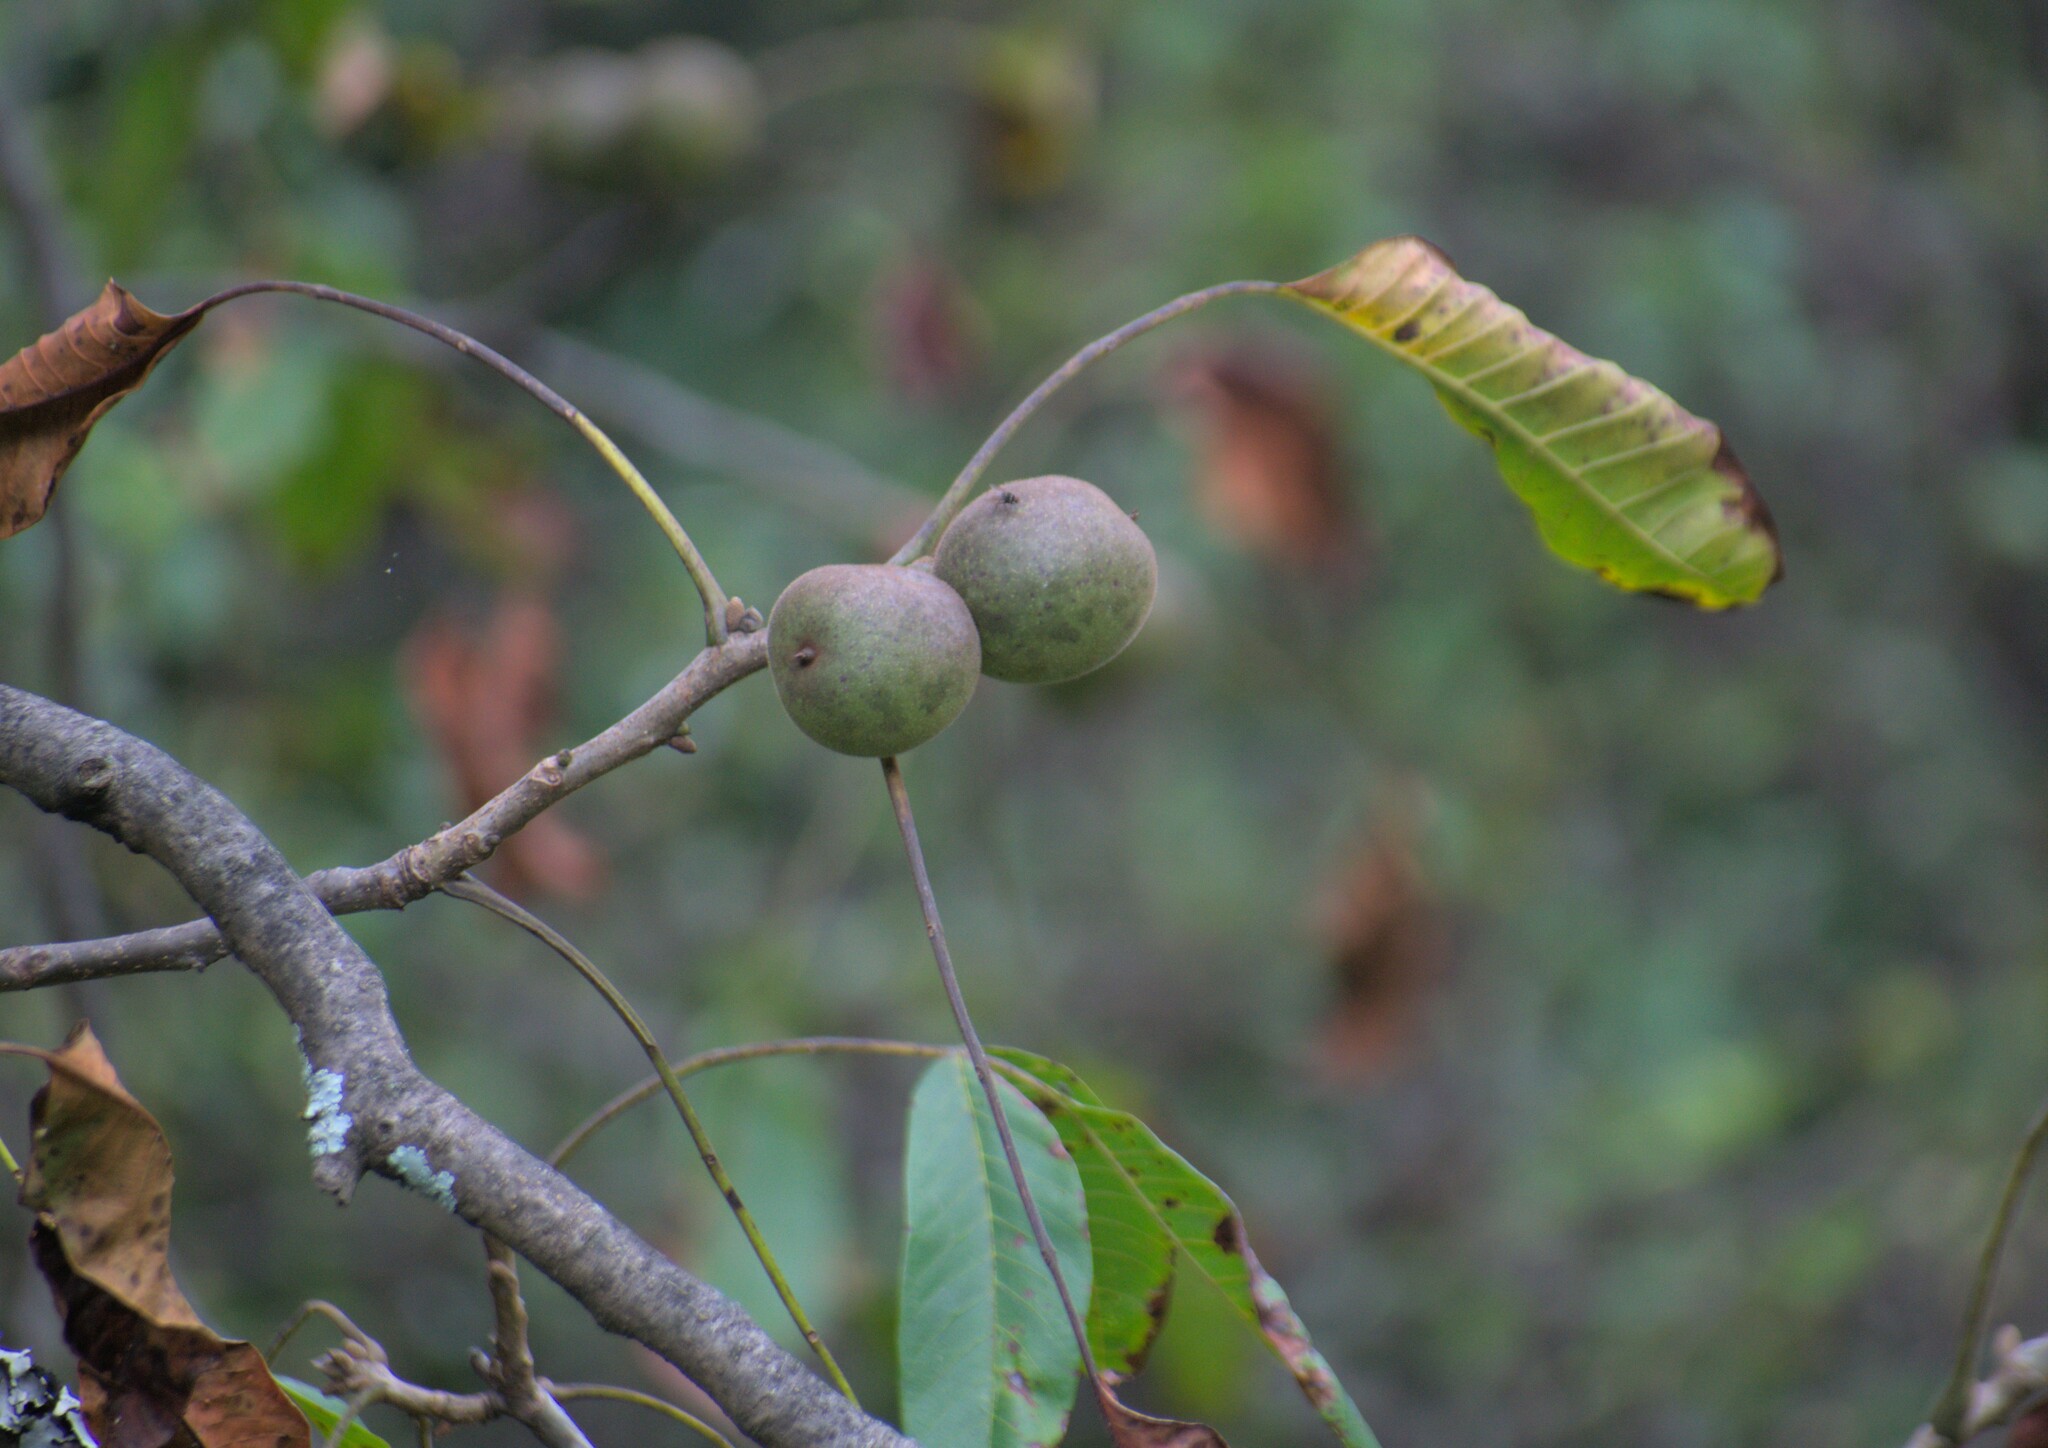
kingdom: Plantae
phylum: Tracheophyta
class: Magnoliopsida
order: Fagales
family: Juglandaceae
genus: Juglans
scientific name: Juglans regia
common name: Walnut
